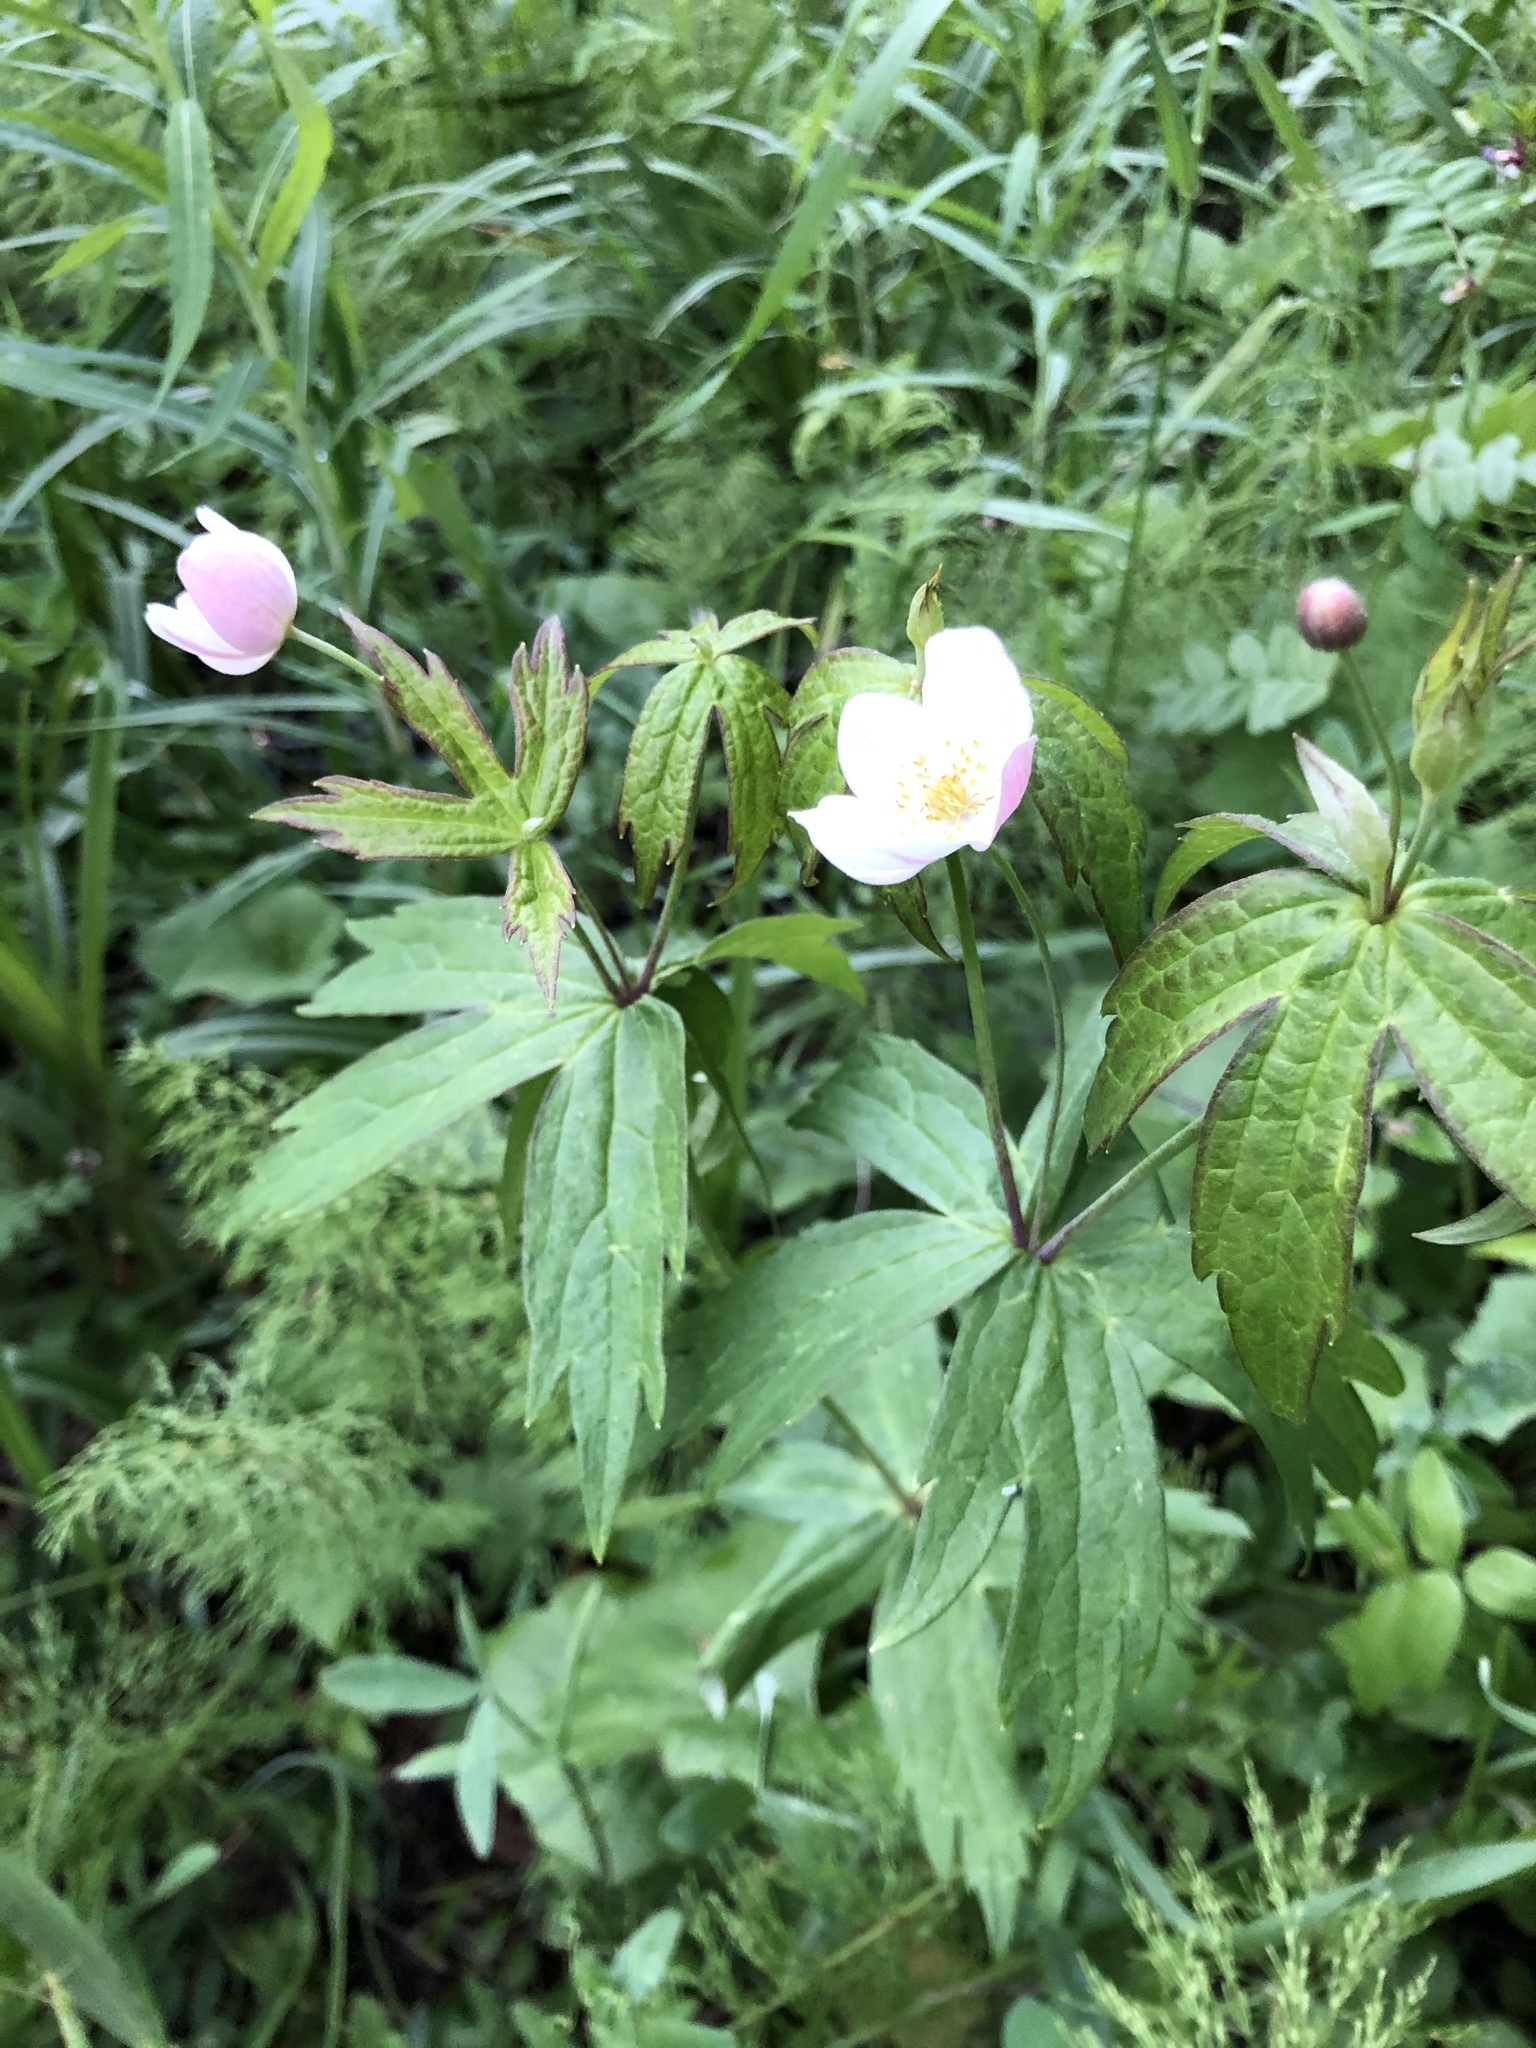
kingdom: Plantae
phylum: Tracheophyta
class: Magnoliopsida
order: Ranunculales
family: Ranunculaceae
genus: Anemonastrum
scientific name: Anemonastrum dichotomum
